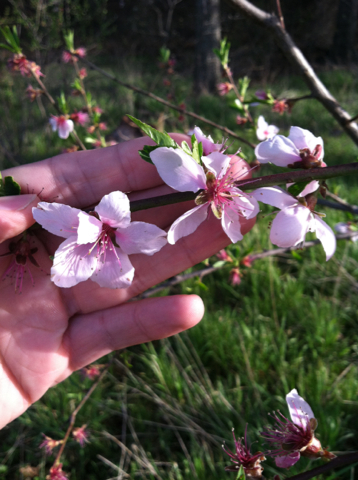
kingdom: Plantae
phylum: Tracheophyta
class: Magnoliopsida
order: Rosales
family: Rosaceae
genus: Prunus
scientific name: Prunus persica
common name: Peach
